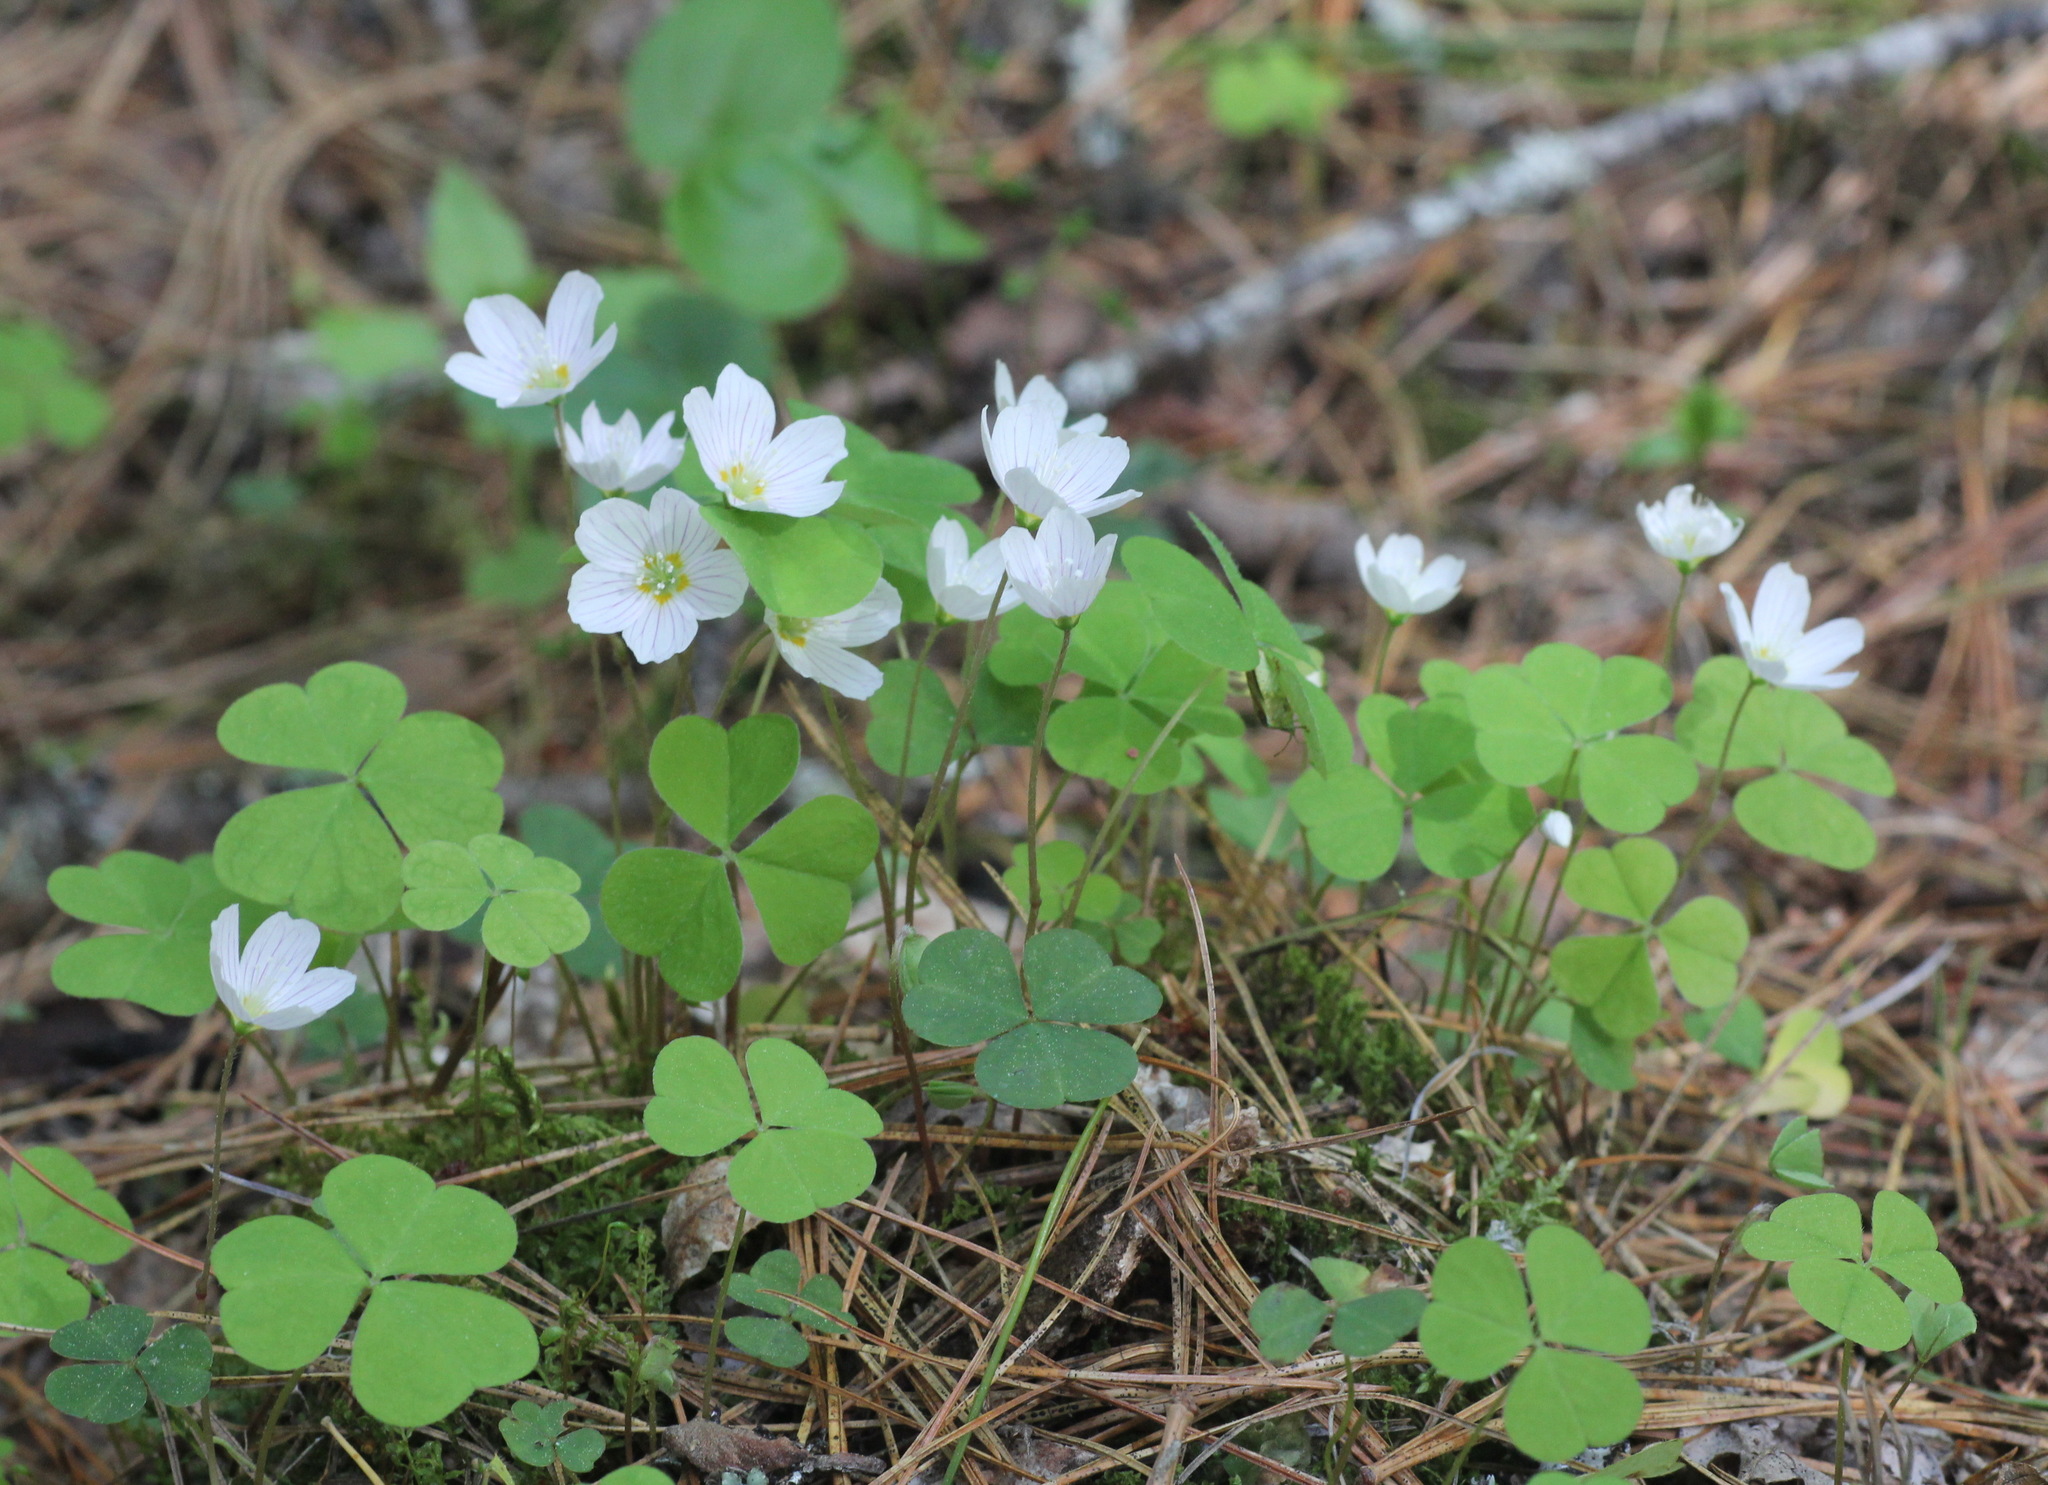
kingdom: Plantae
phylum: Tracheophyta
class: Magnoliopsida
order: Oxalidales
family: Oxalidaceae
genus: Oxalis
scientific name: Oxalis acetosella
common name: Wood-sorrel
